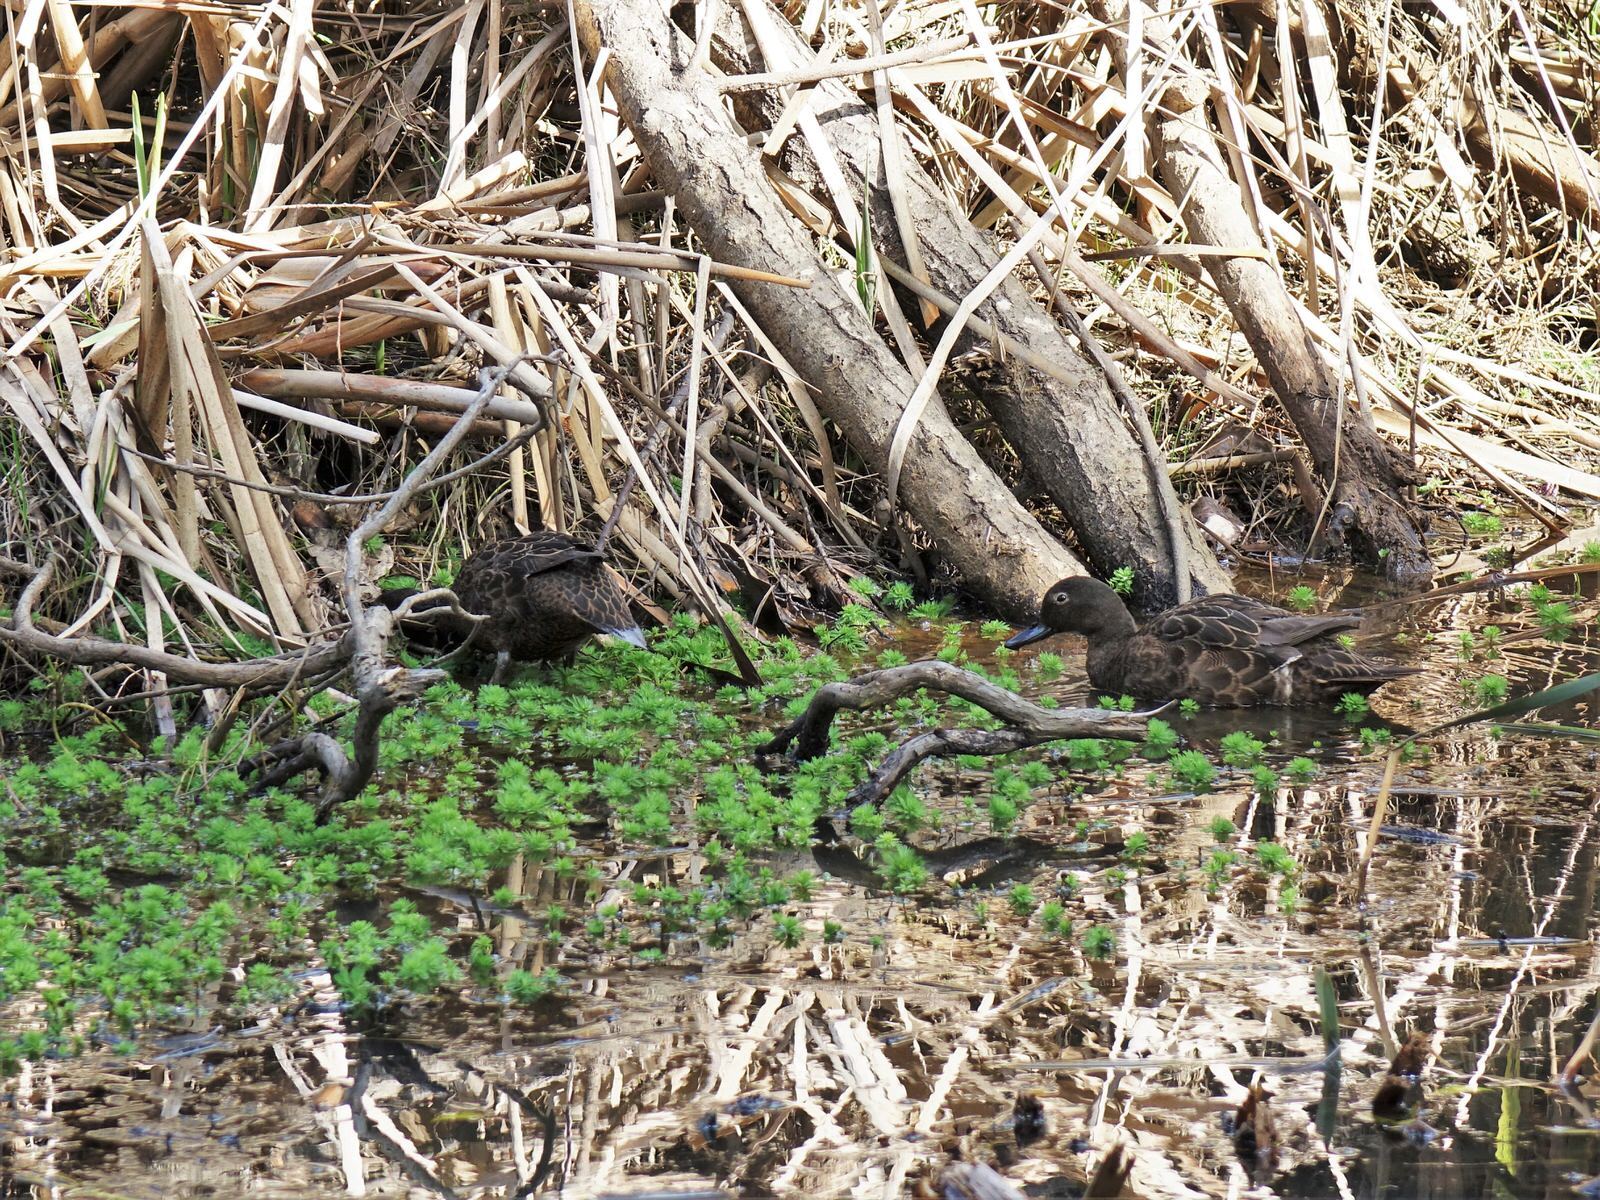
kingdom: Animalia
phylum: Chordata
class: Aves
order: Anseriformes
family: Anatidae
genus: Anas
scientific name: Anas chlorotis
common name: Brown teal
